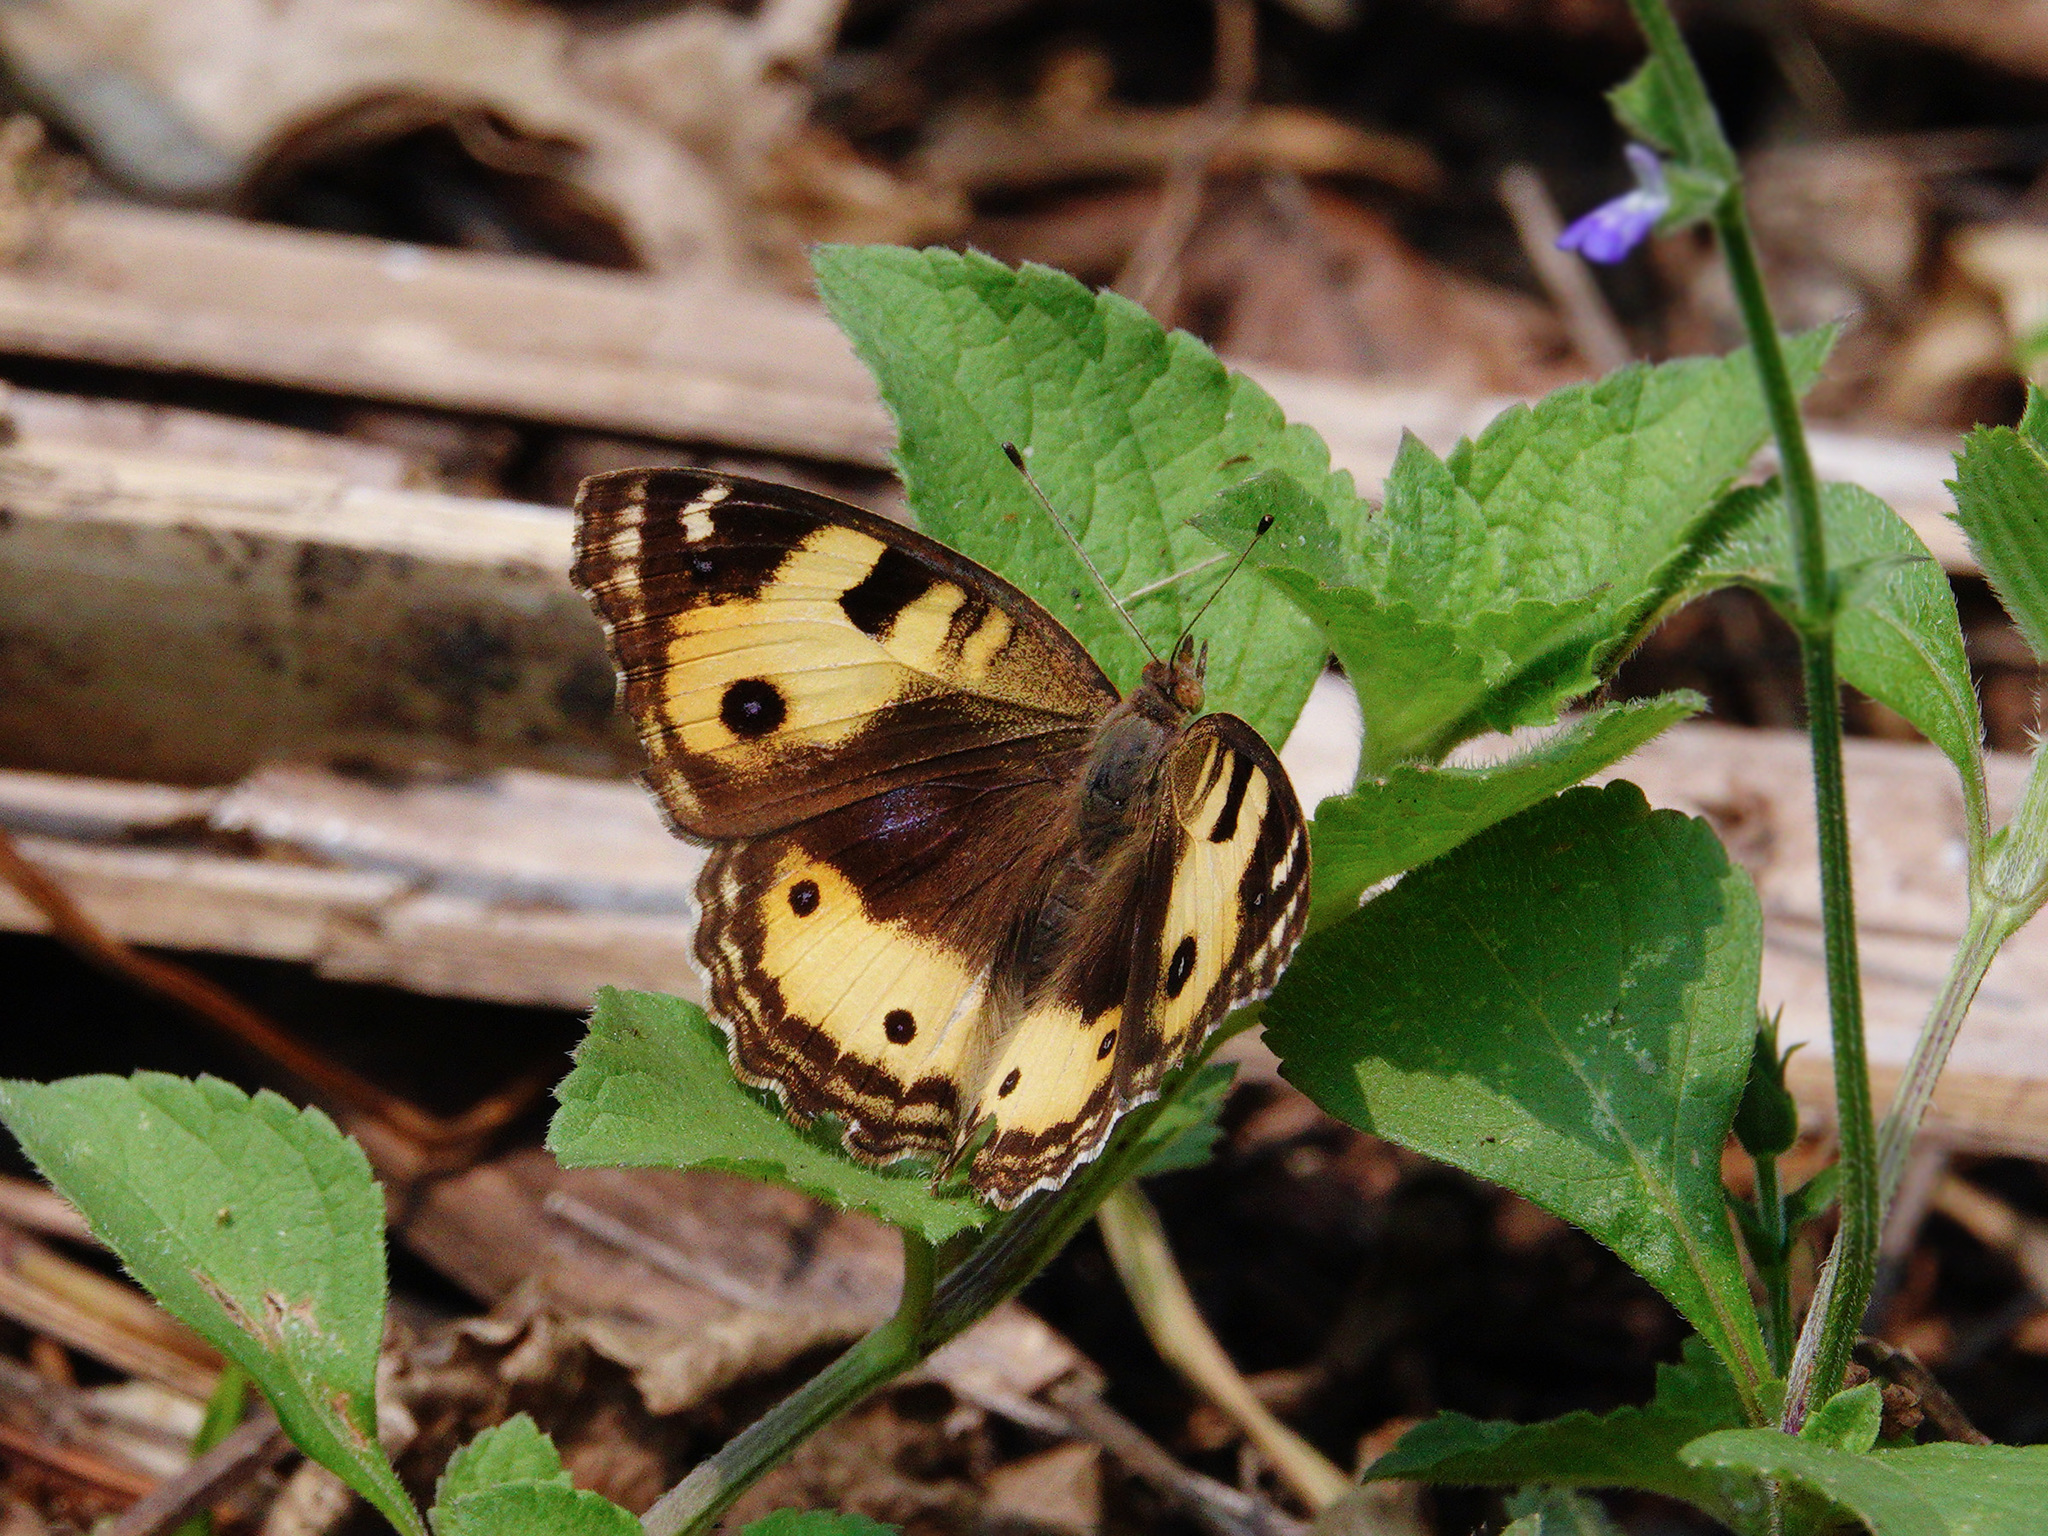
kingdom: Animalia
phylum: Arthropoda
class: Insecta
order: Lepidoptera
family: Nymphalidae
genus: Junonia
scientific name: Junonia hierta
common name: Yellow pansy
